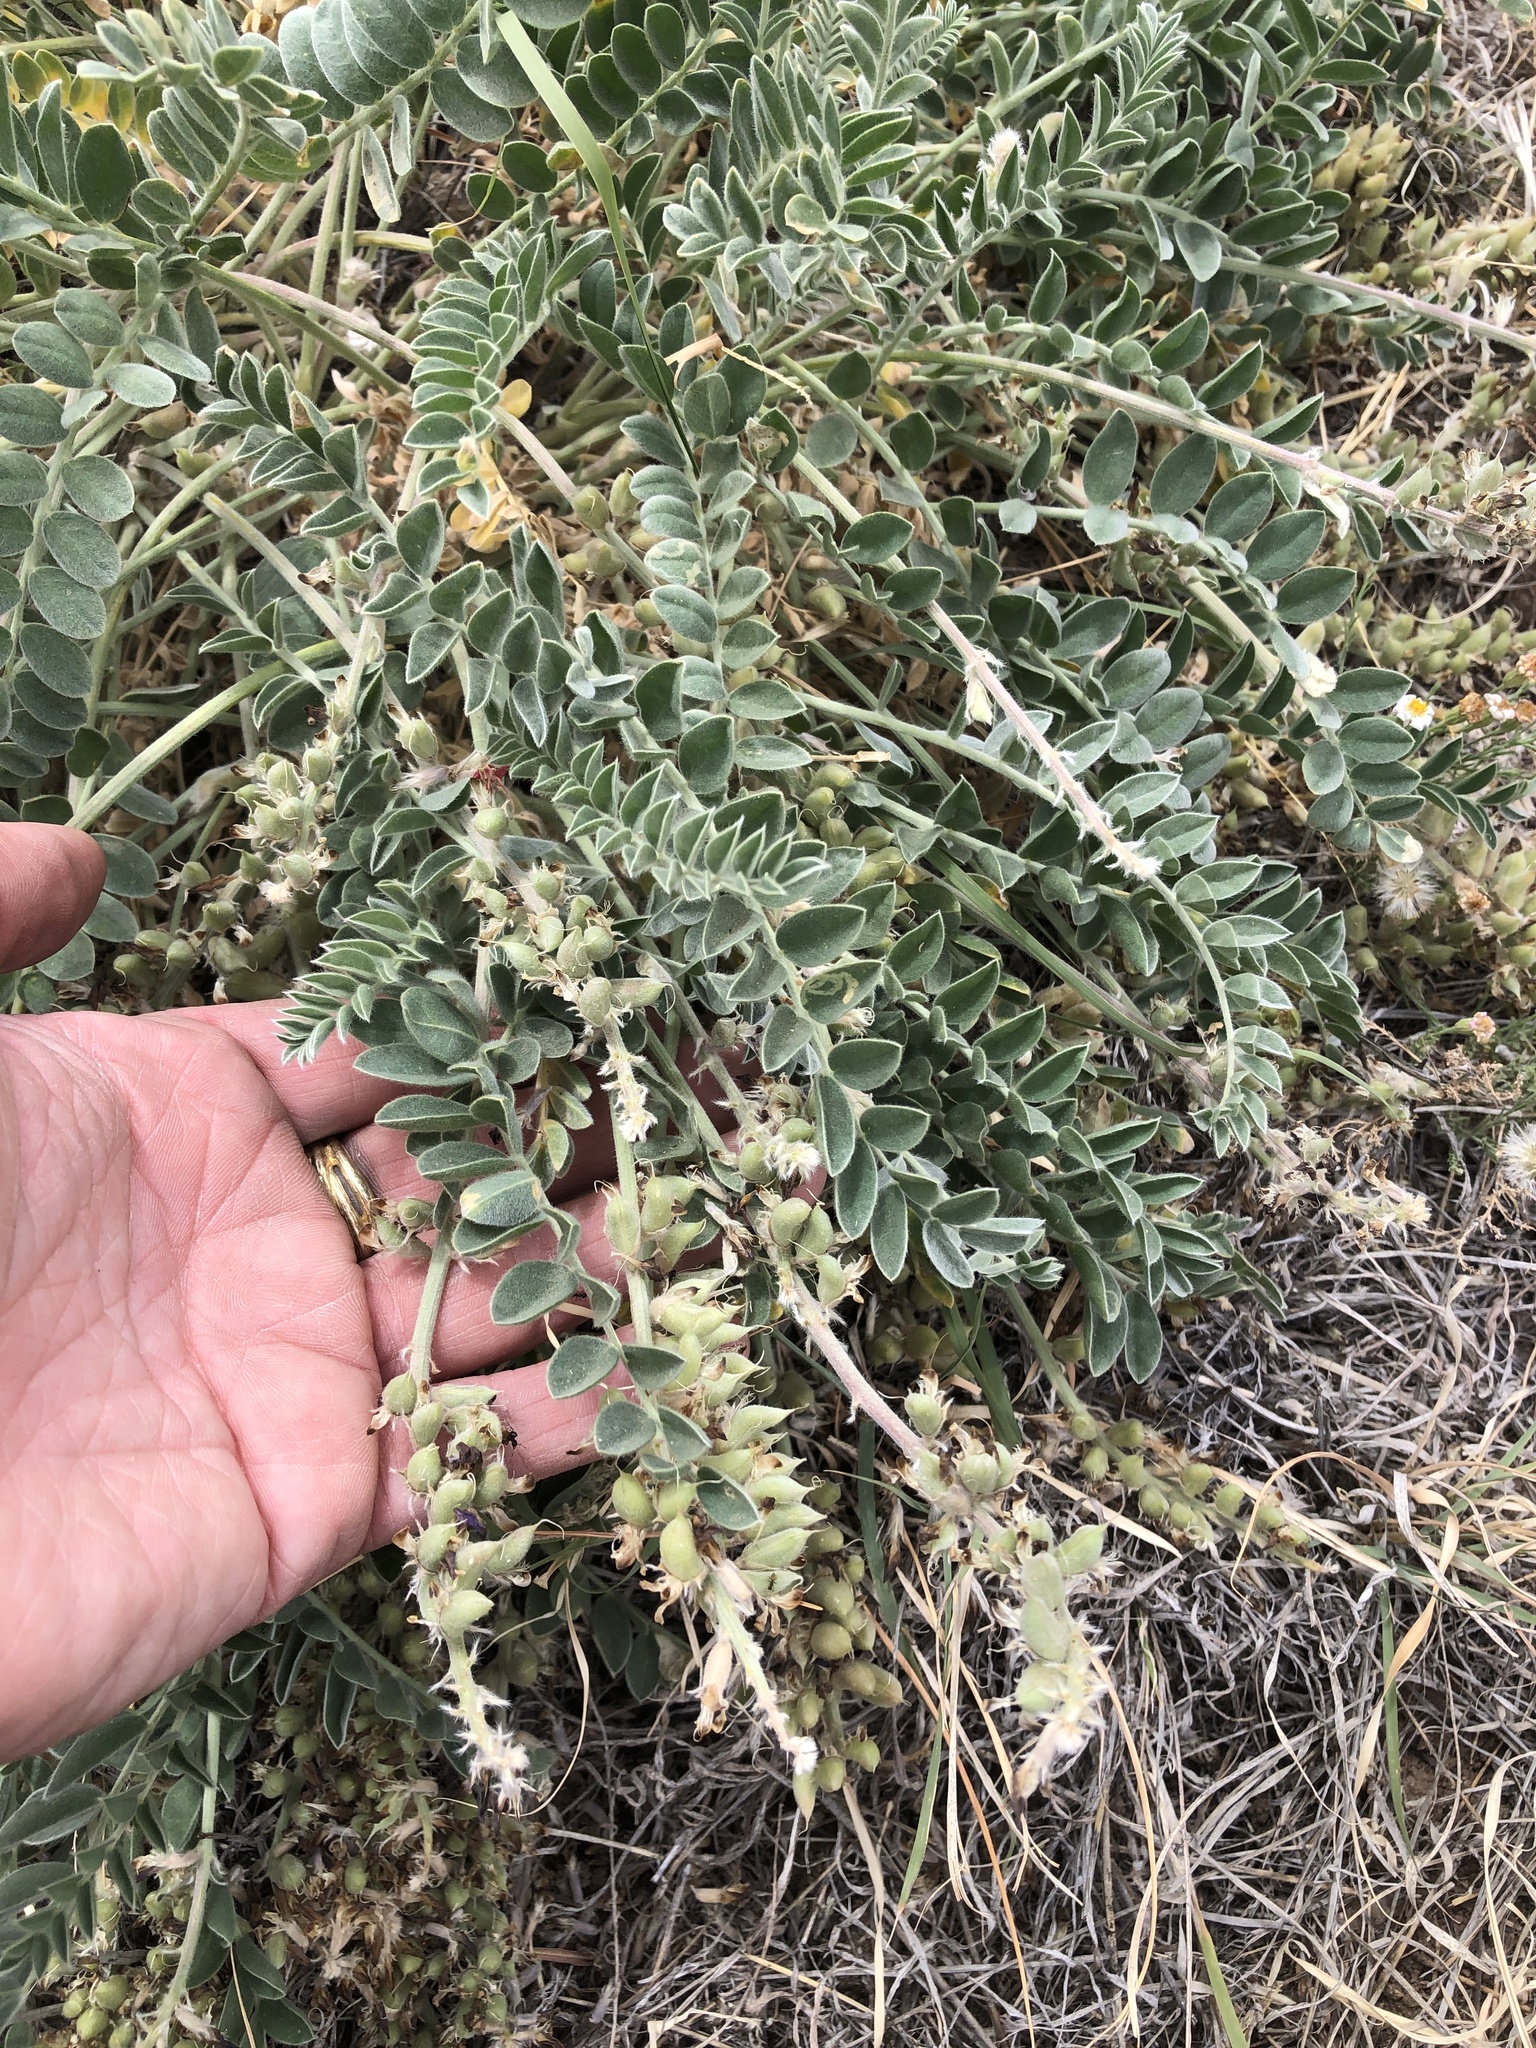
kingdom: Plantae
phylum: Tracheophyta
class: Magnoliopsida
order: Fabales
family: Fabaceae
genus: Astragalus
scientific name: Astragalus mollissimus
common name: Woolly locoweed
